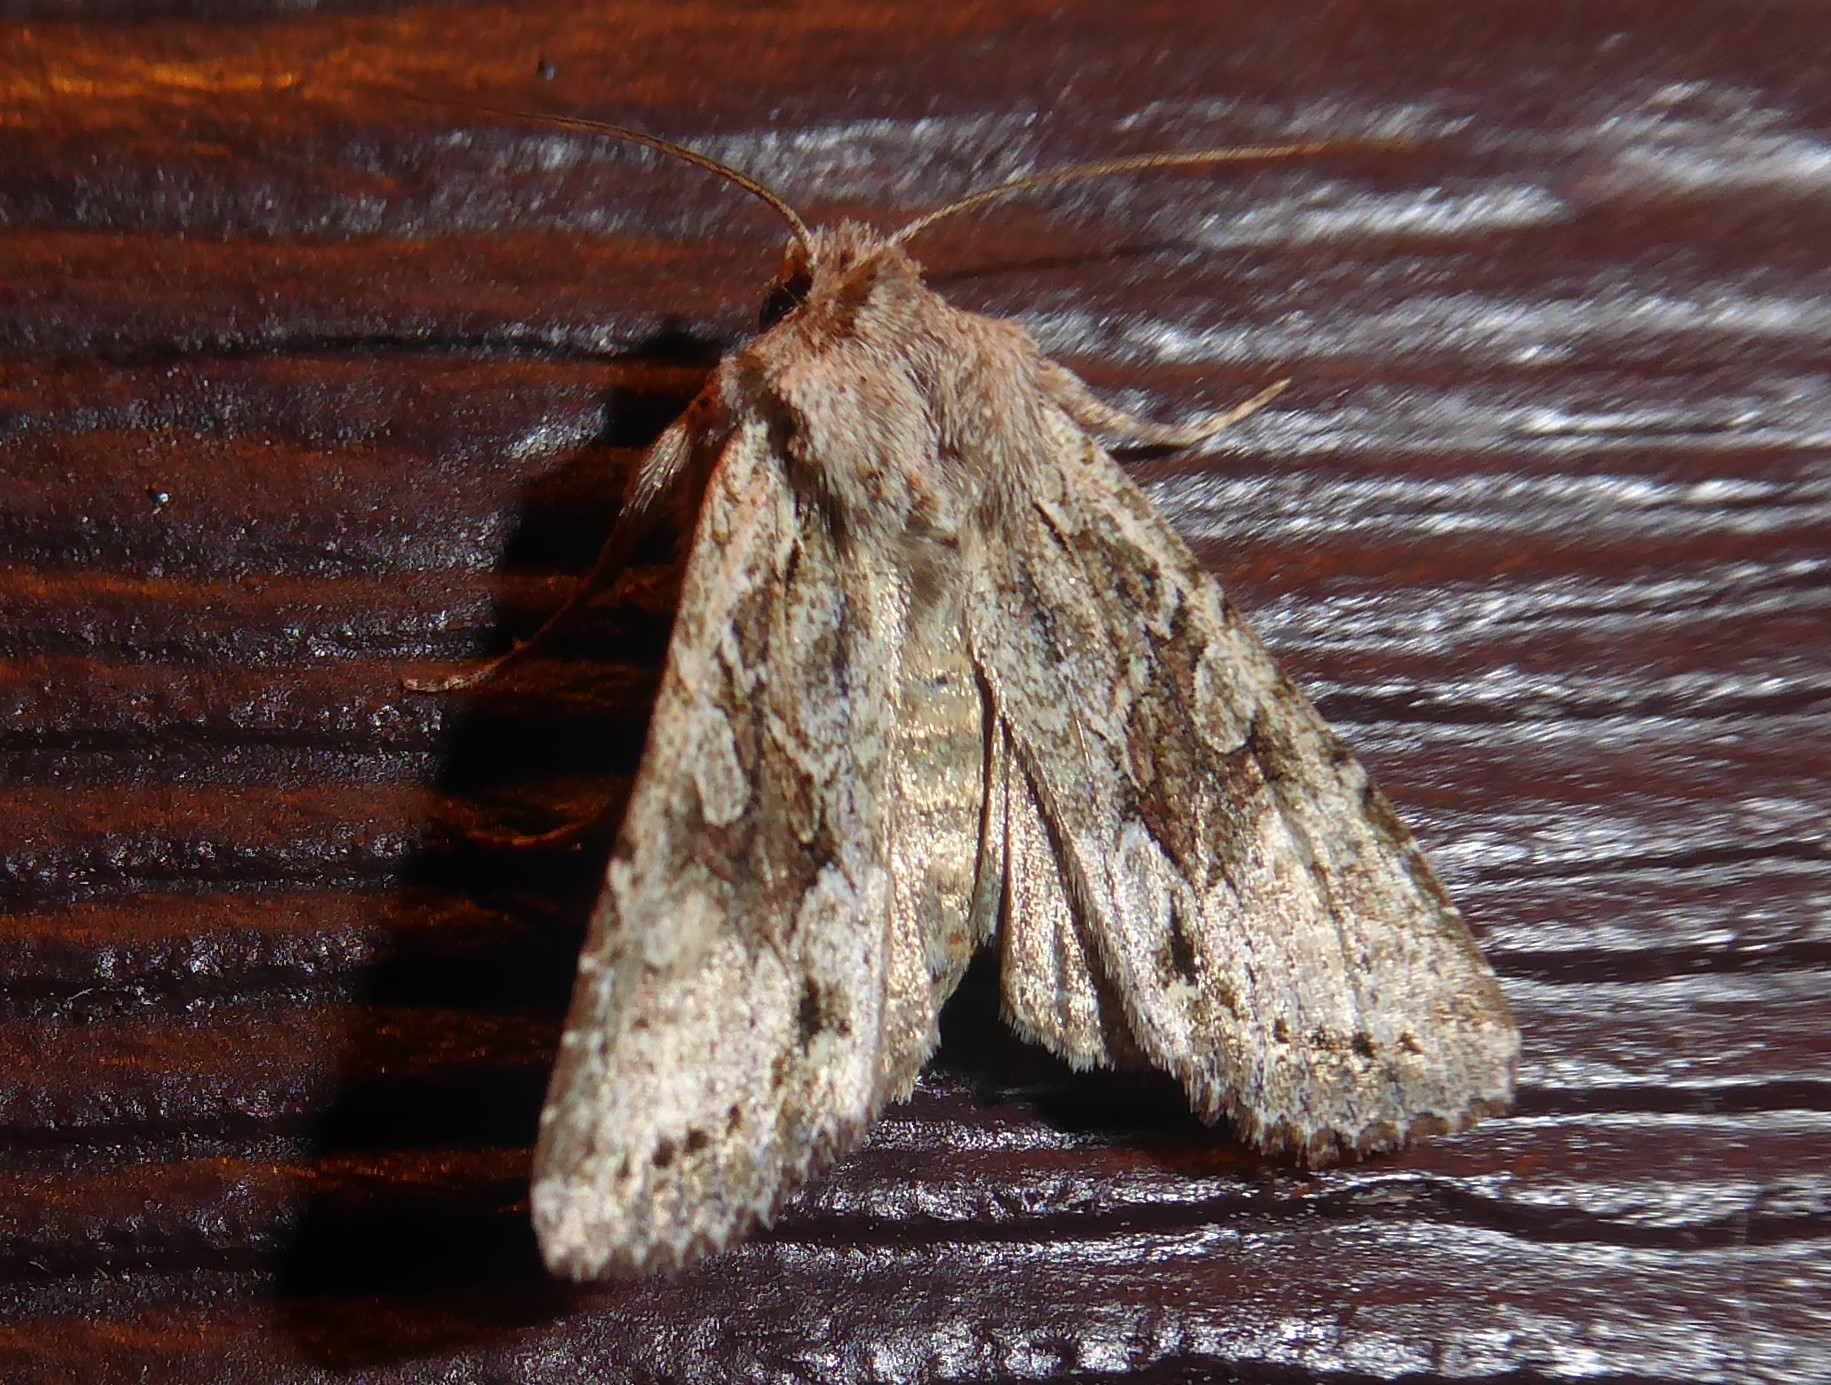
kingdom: Animalia
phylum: Arthropoda
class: Insecta
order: Lepidoptera
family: Noctuidae
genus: Ichneutica
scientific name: Ichneutica mutans
